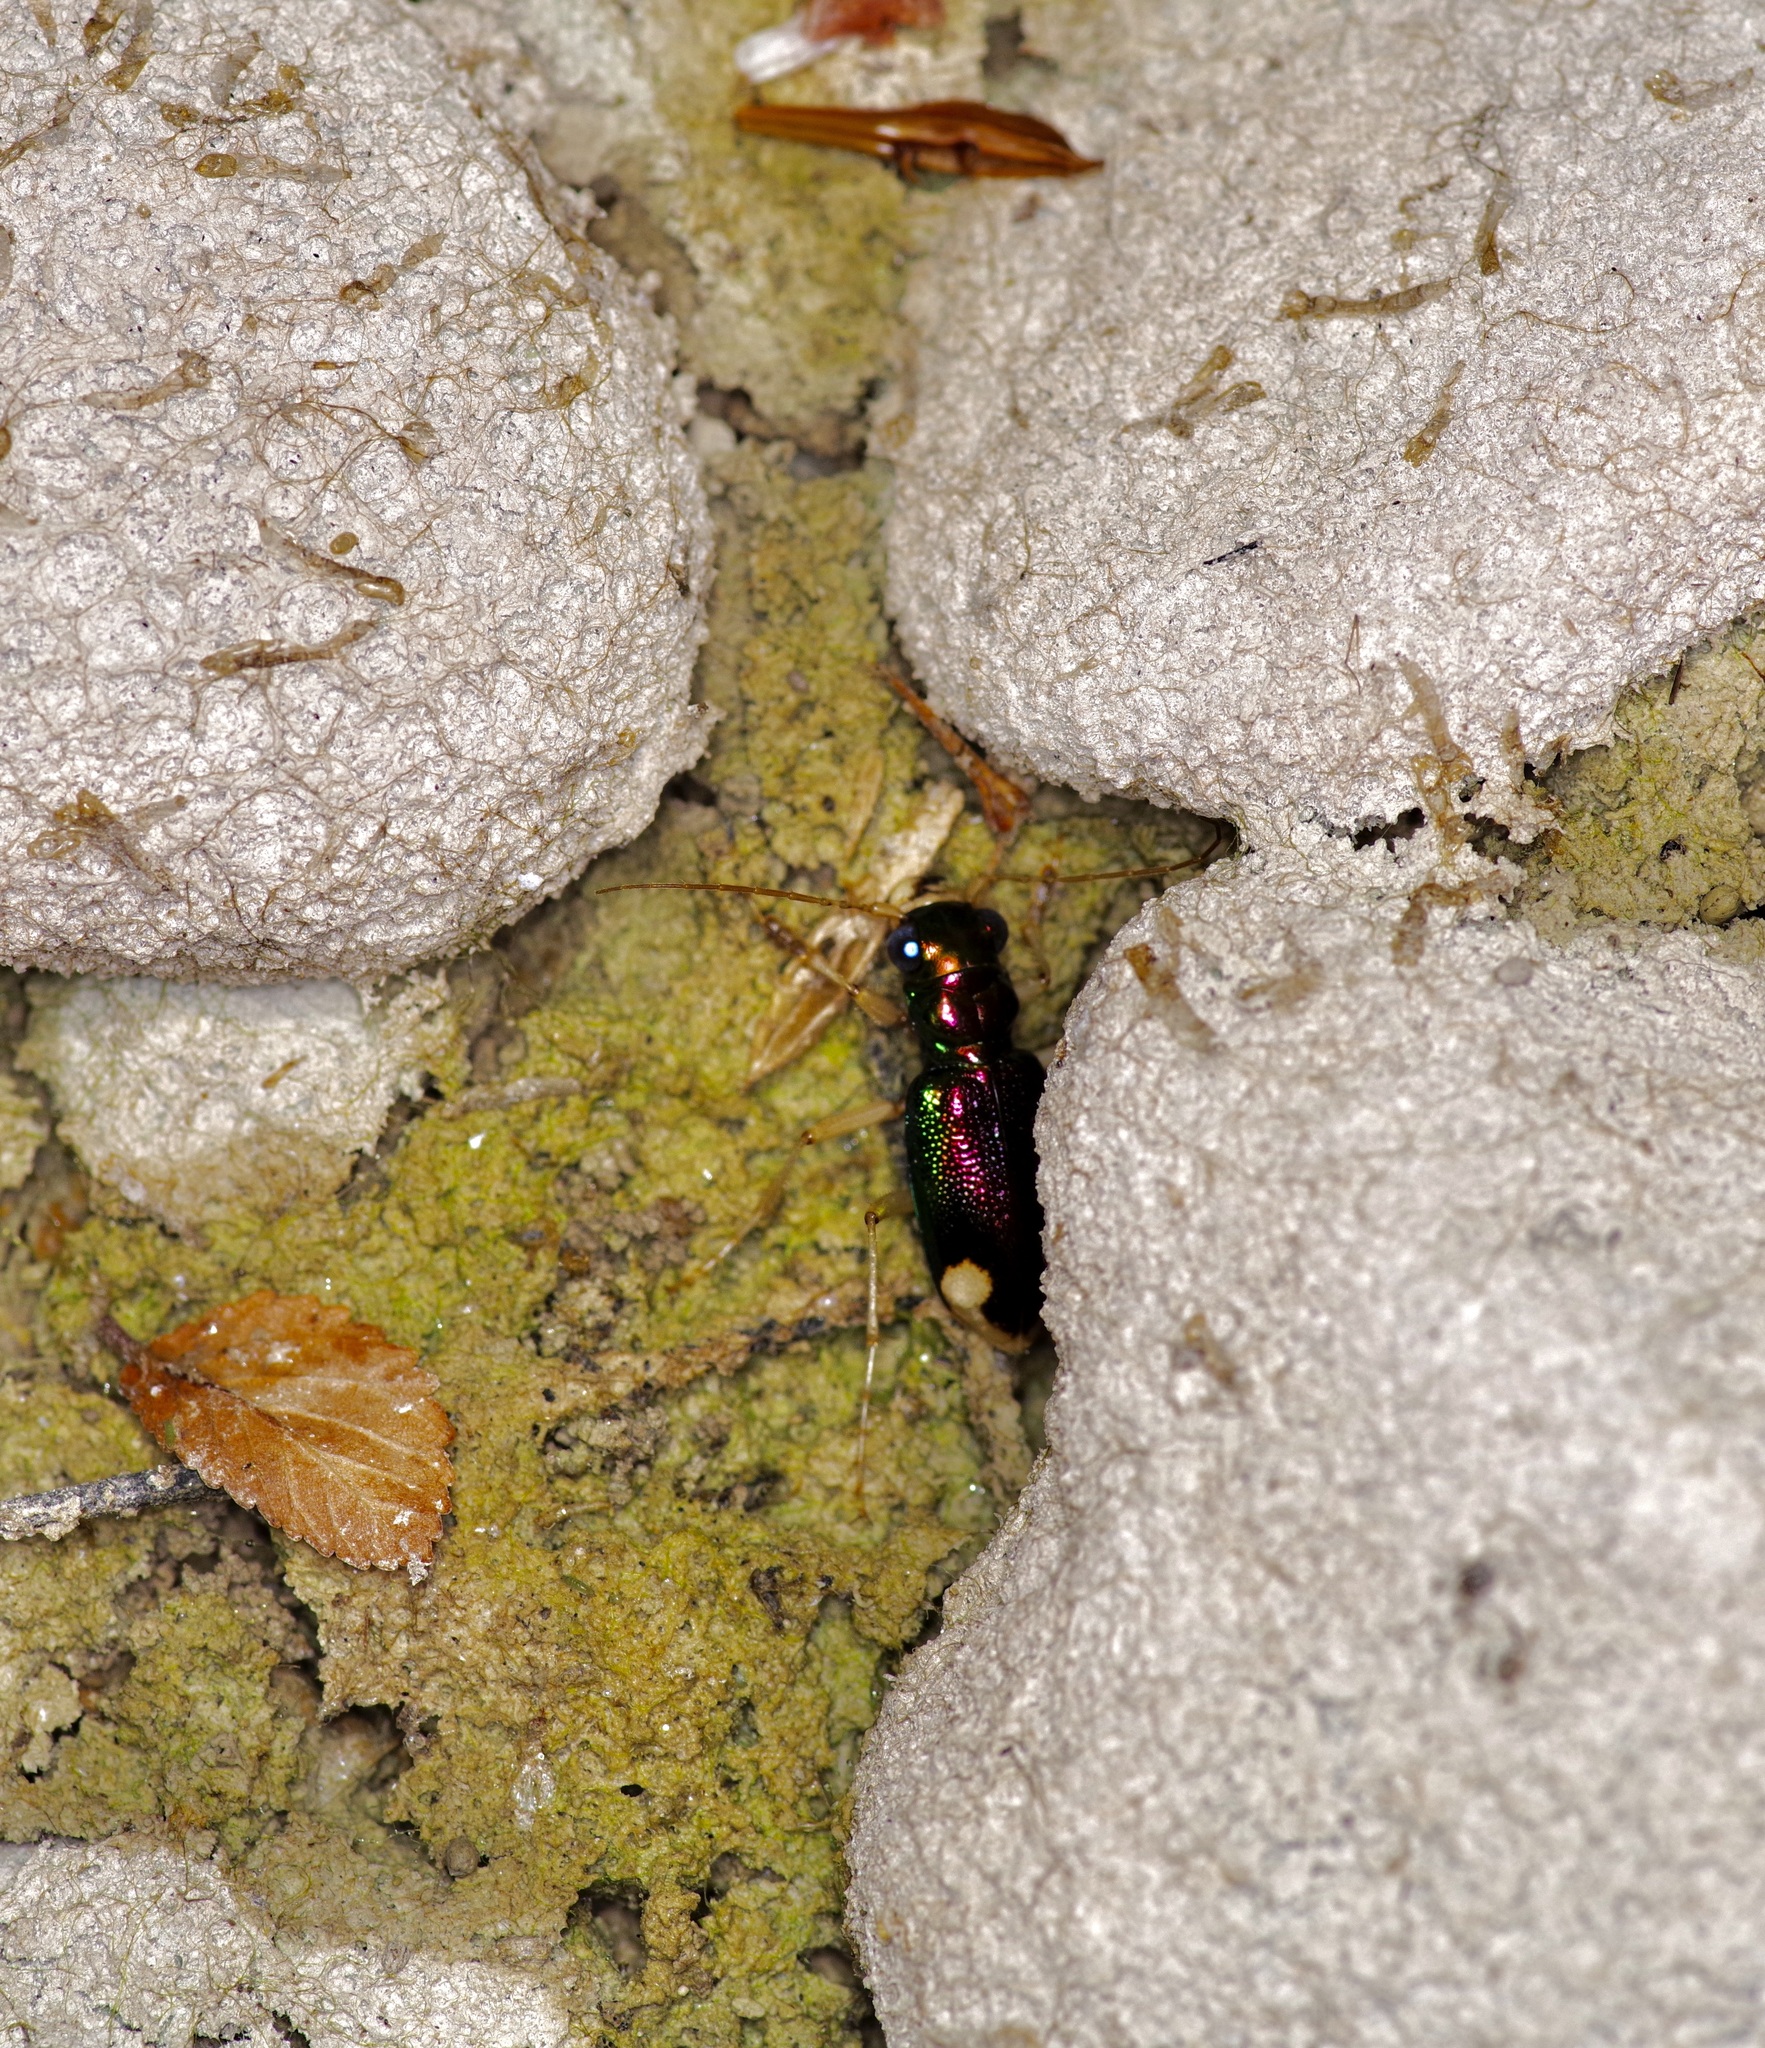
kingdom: Animalia
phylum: Arthropoda
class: Insecta
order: Coleoptera
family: Carabidae
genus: Tetracha
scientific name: Tetracha carolina
